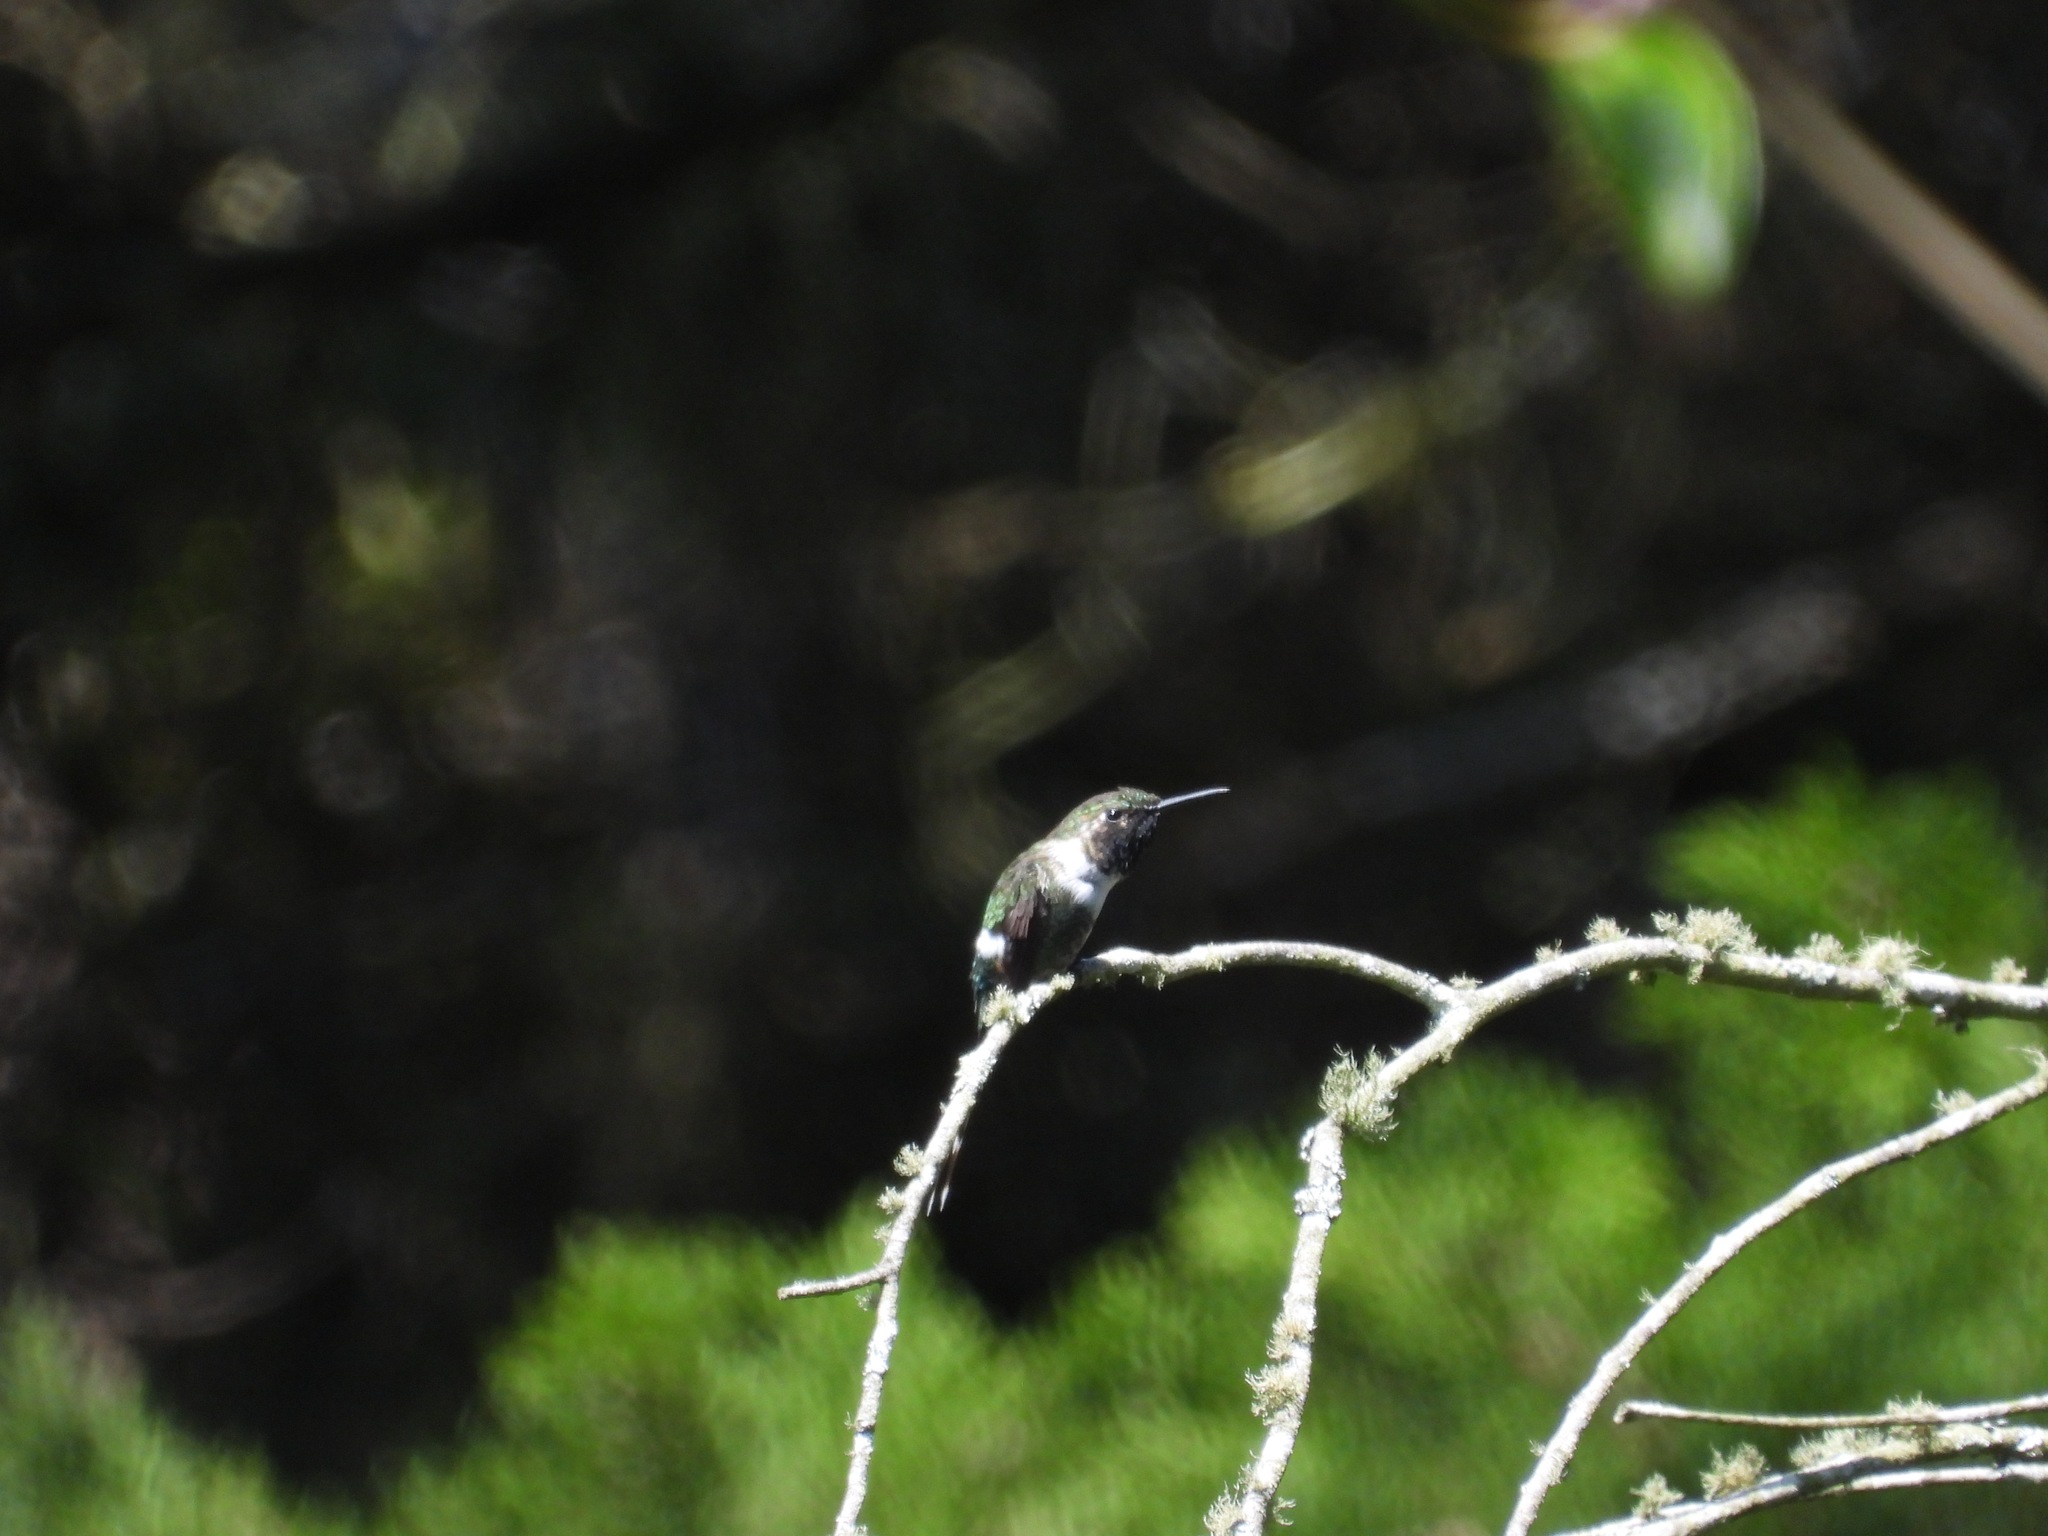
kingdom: Animalia
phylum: Chordata
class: Aves
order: Apodiformes
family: Trochilidae
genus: Tilmatura
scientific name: Tilmatura dupontii
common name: Sparkling-tailed woodstar
